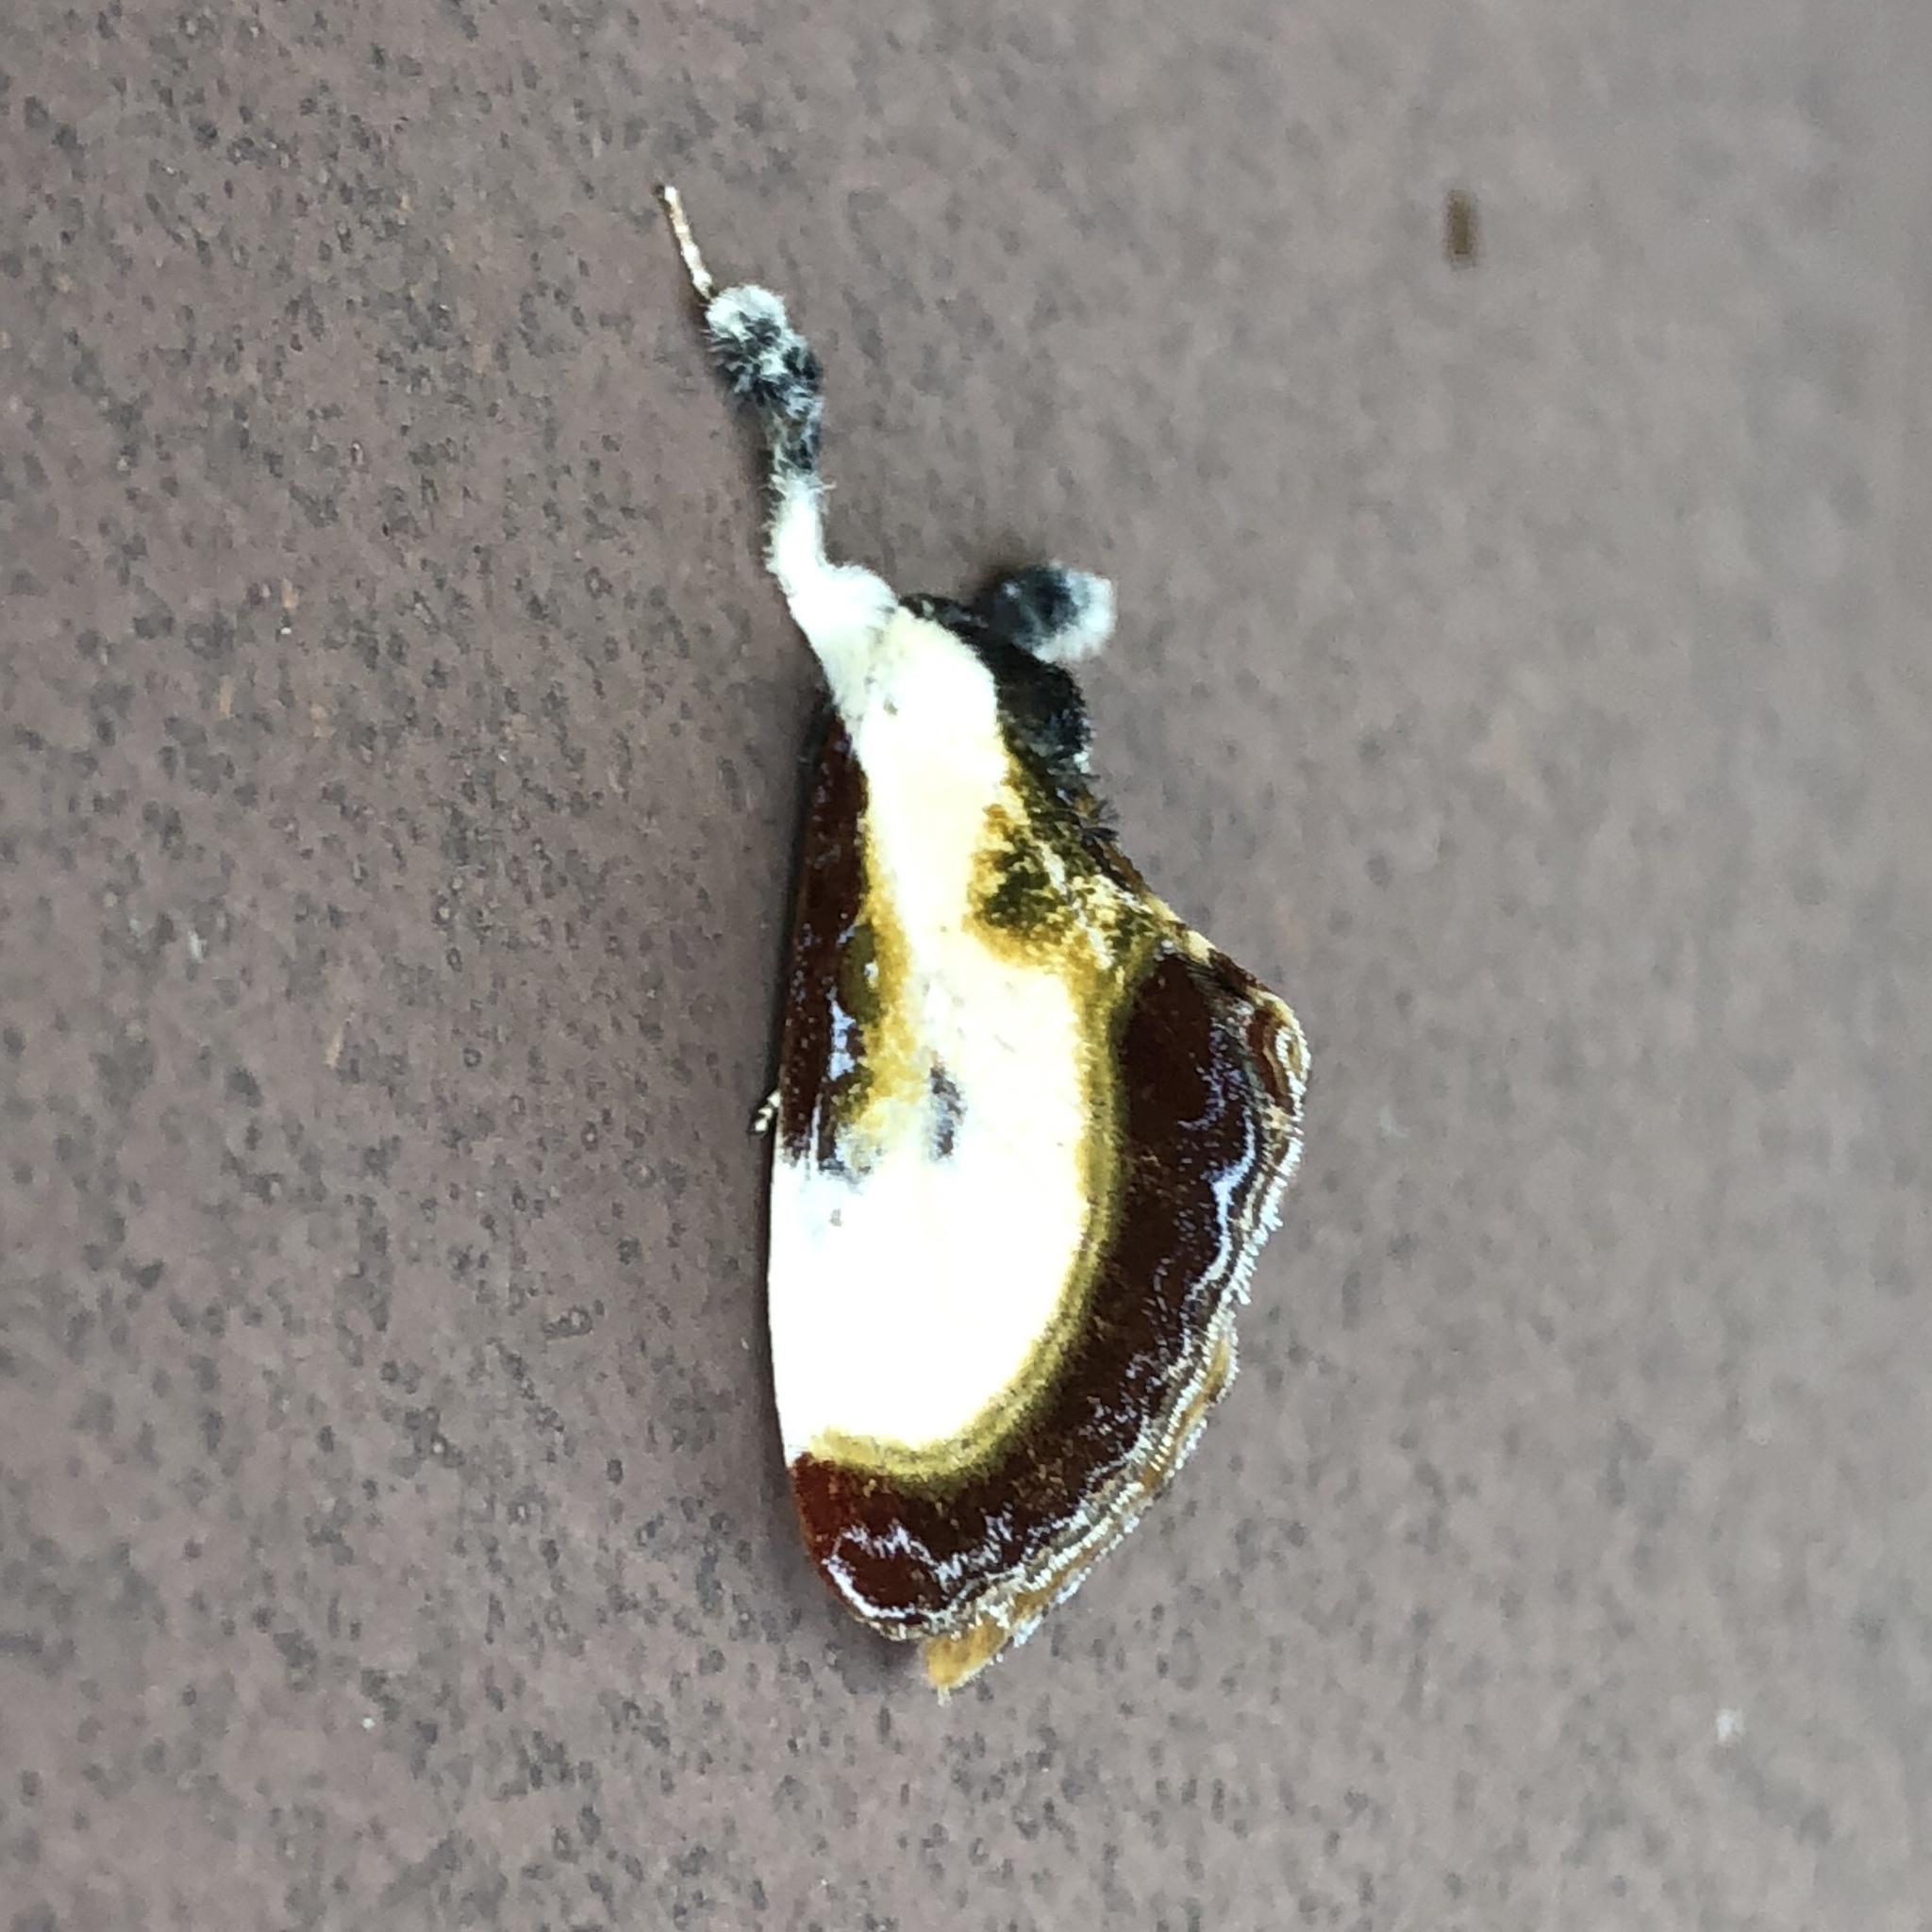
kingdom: Animalia
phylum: Arthropoda
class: Insecta
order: Lepidoptera
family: Noctuidae
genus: Eudryas
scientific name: Eudryas grata
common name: Beautiful wood-nymph
